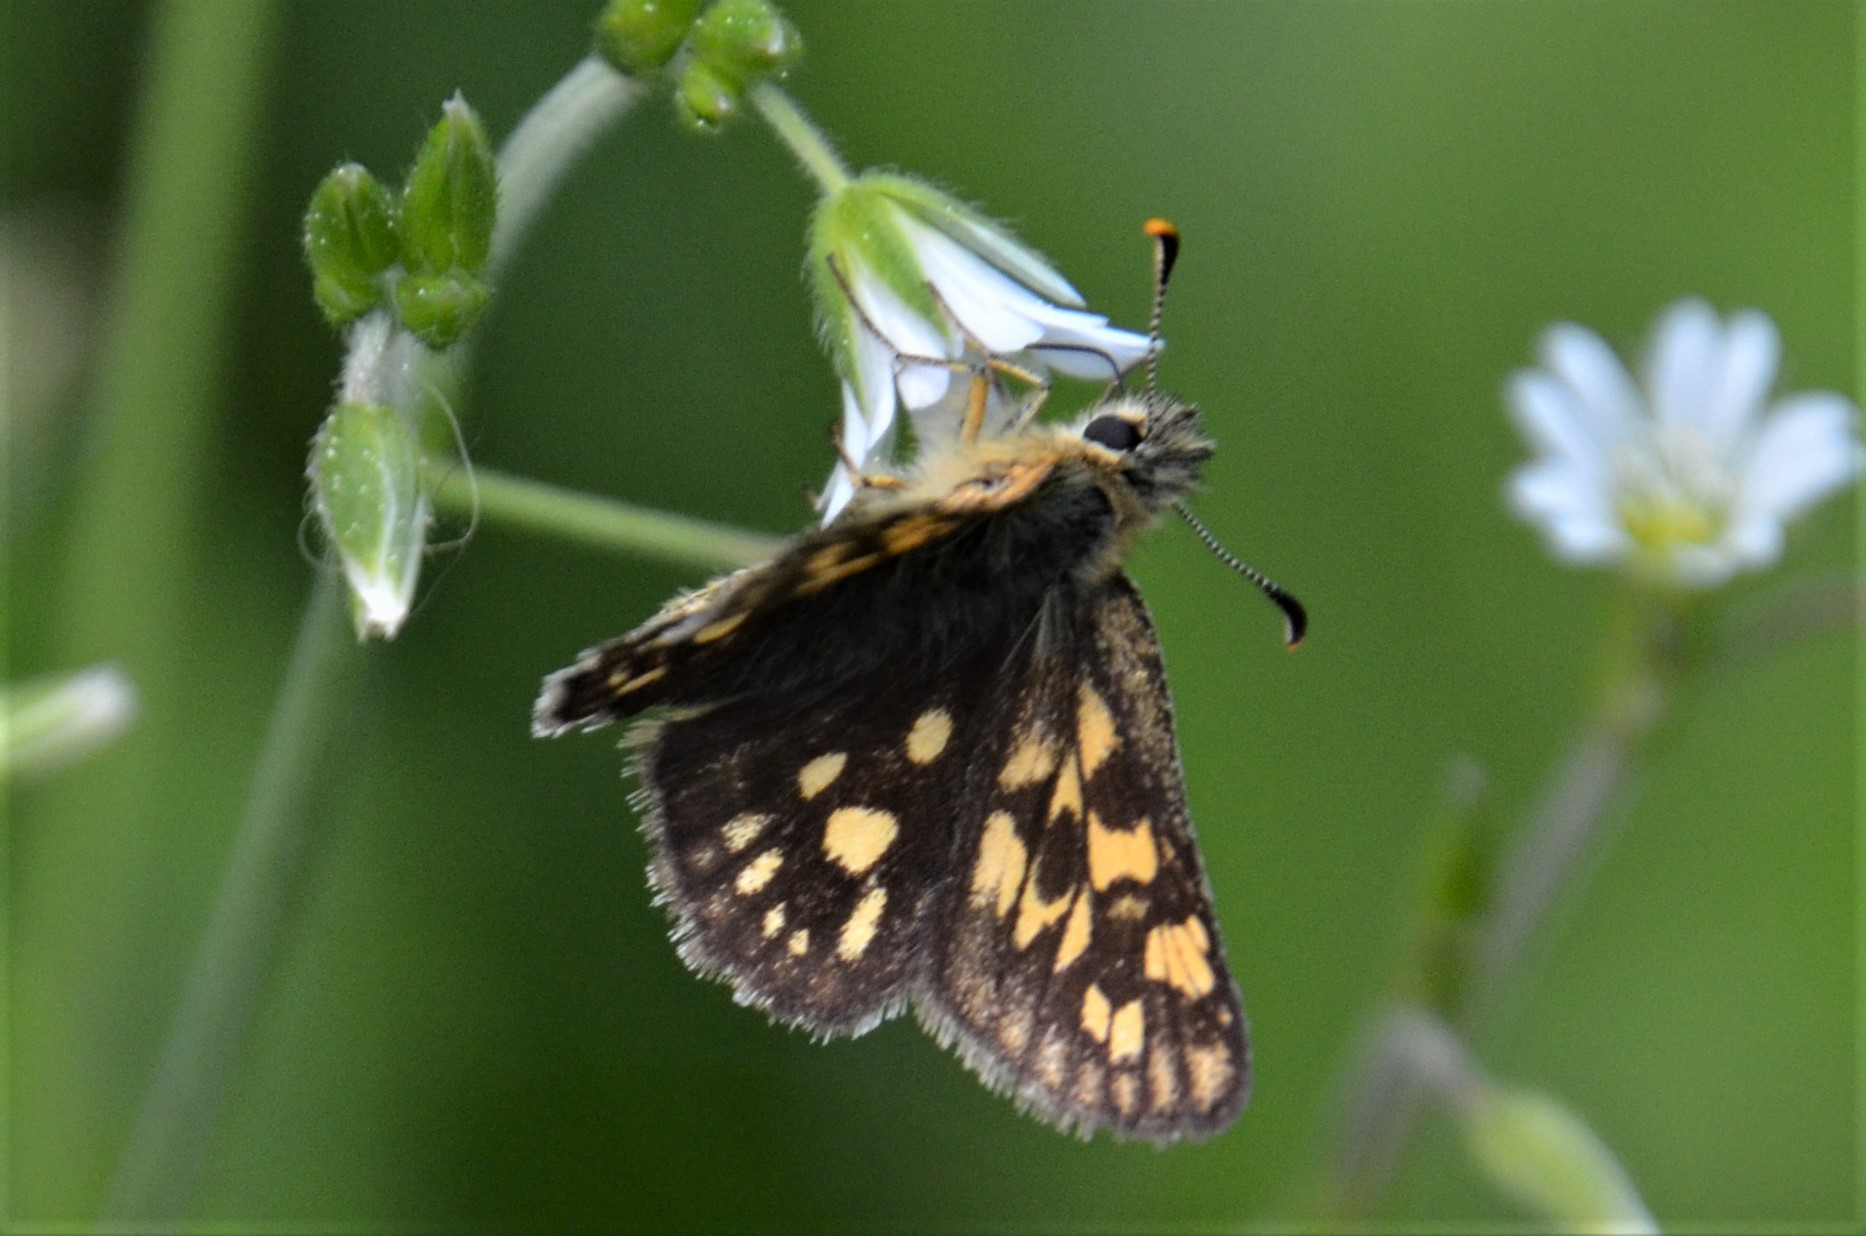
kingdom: Animalia
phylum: Arthropoda
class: Insecta
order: Lepidoptera
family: Hesperiidae
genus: Carterocephalus
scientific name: Carterocephalus palaemon
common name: Chequered skipper
